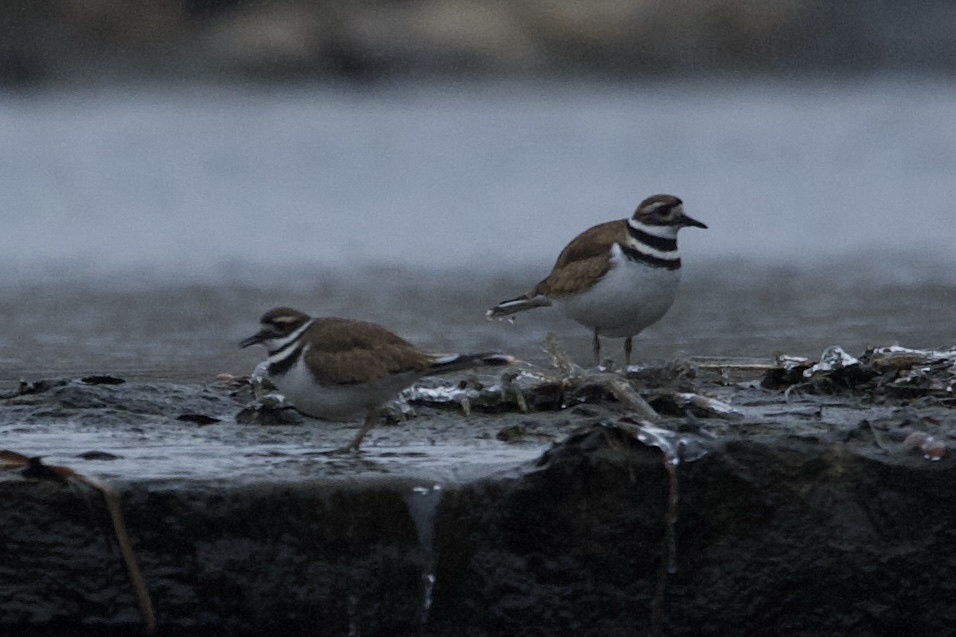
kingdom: Animalia
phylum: Chordata
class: Aves
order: Charadriiformes
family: Charadriidae
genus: Charadrius
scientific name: Charadrius vociferus
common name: Killdeer
